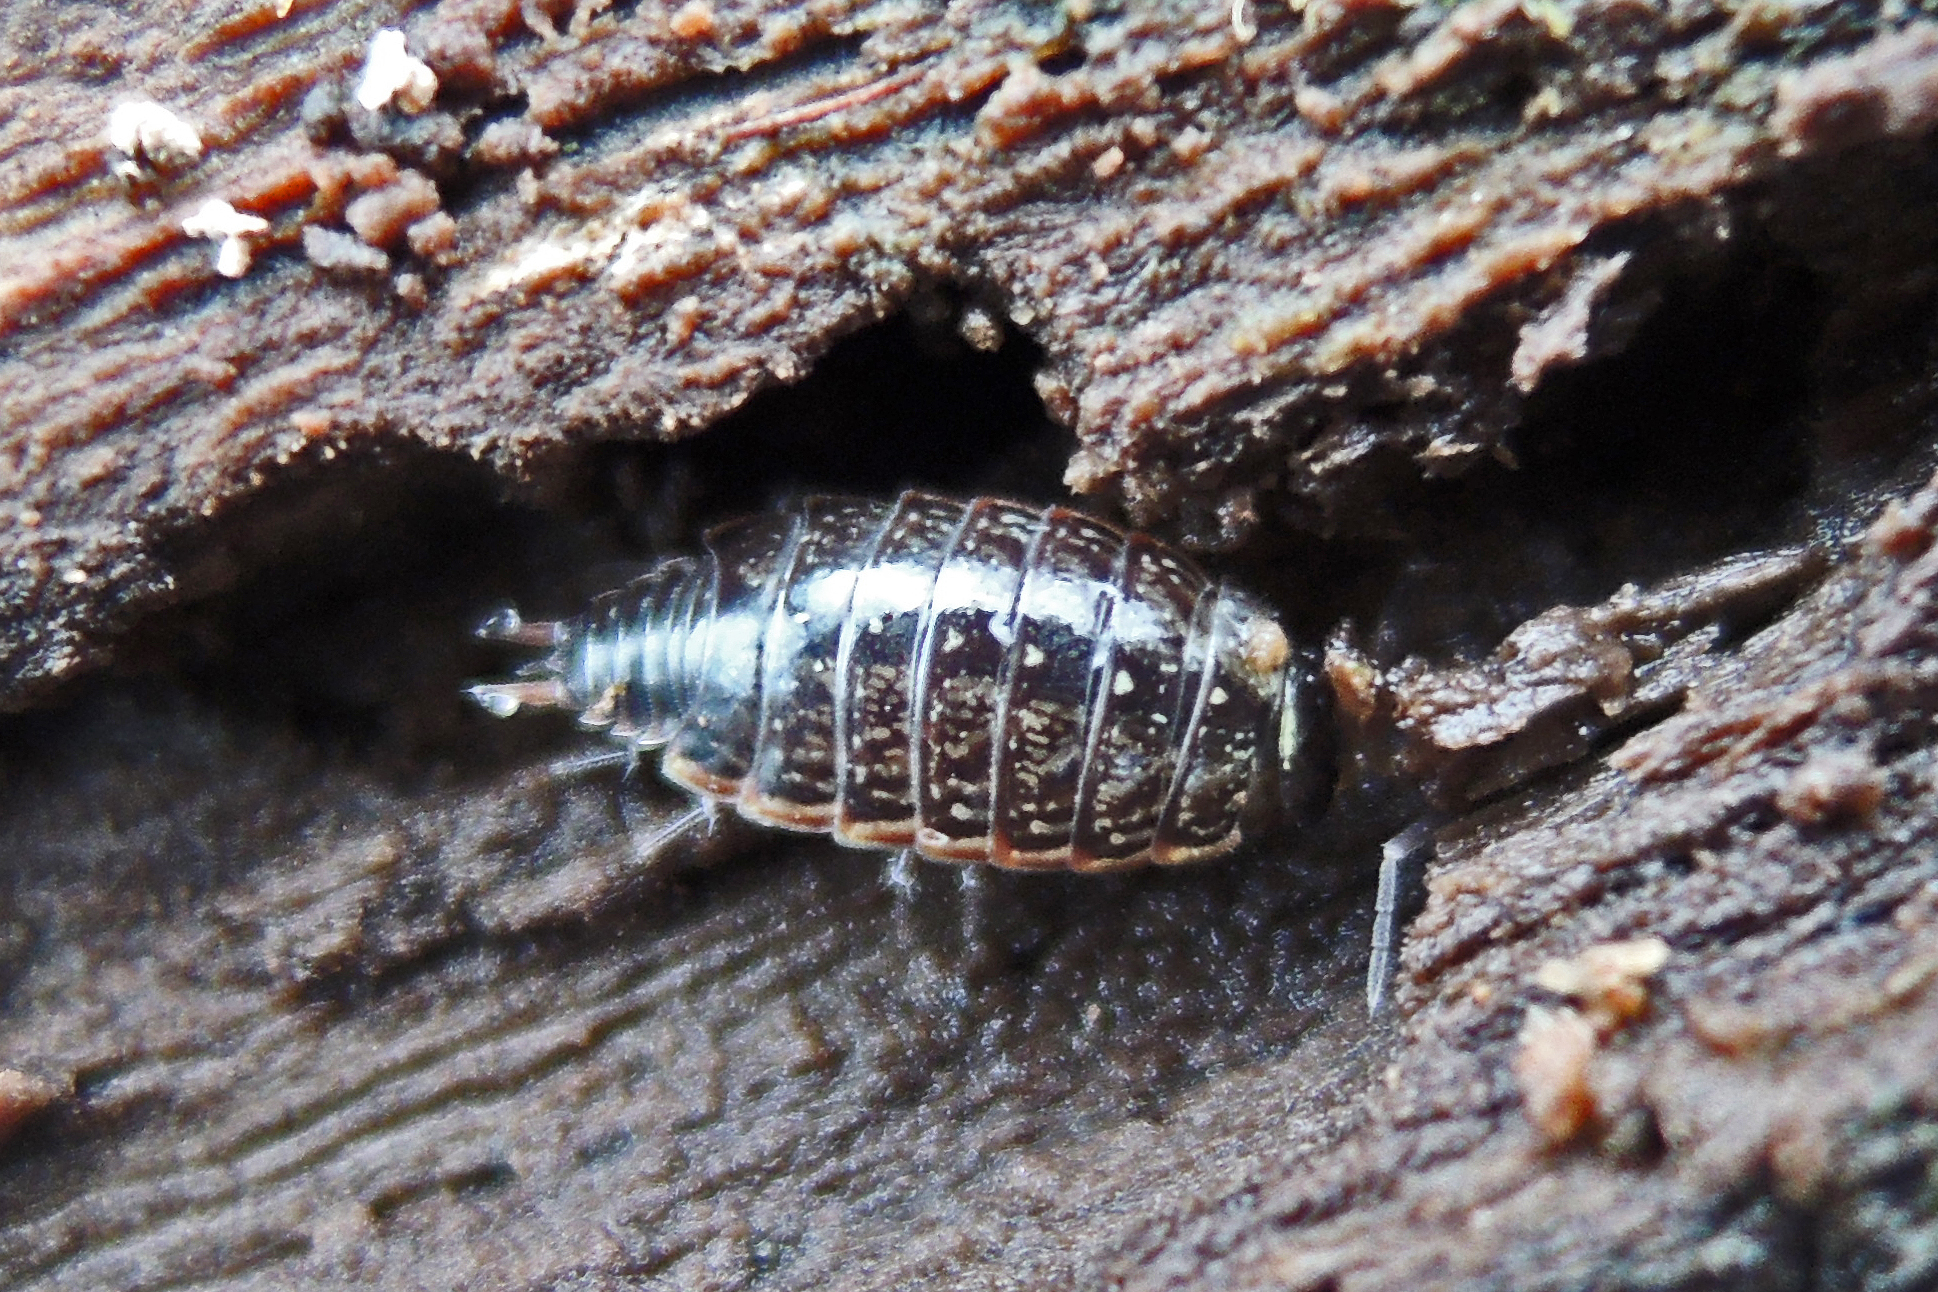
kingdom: Animalia
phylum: Arthropoda
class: Malacostraca
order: Isopoda
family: Philosciidae
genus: Philoscia
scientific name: Philoscia muscorum
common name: Common striped woodlouse
